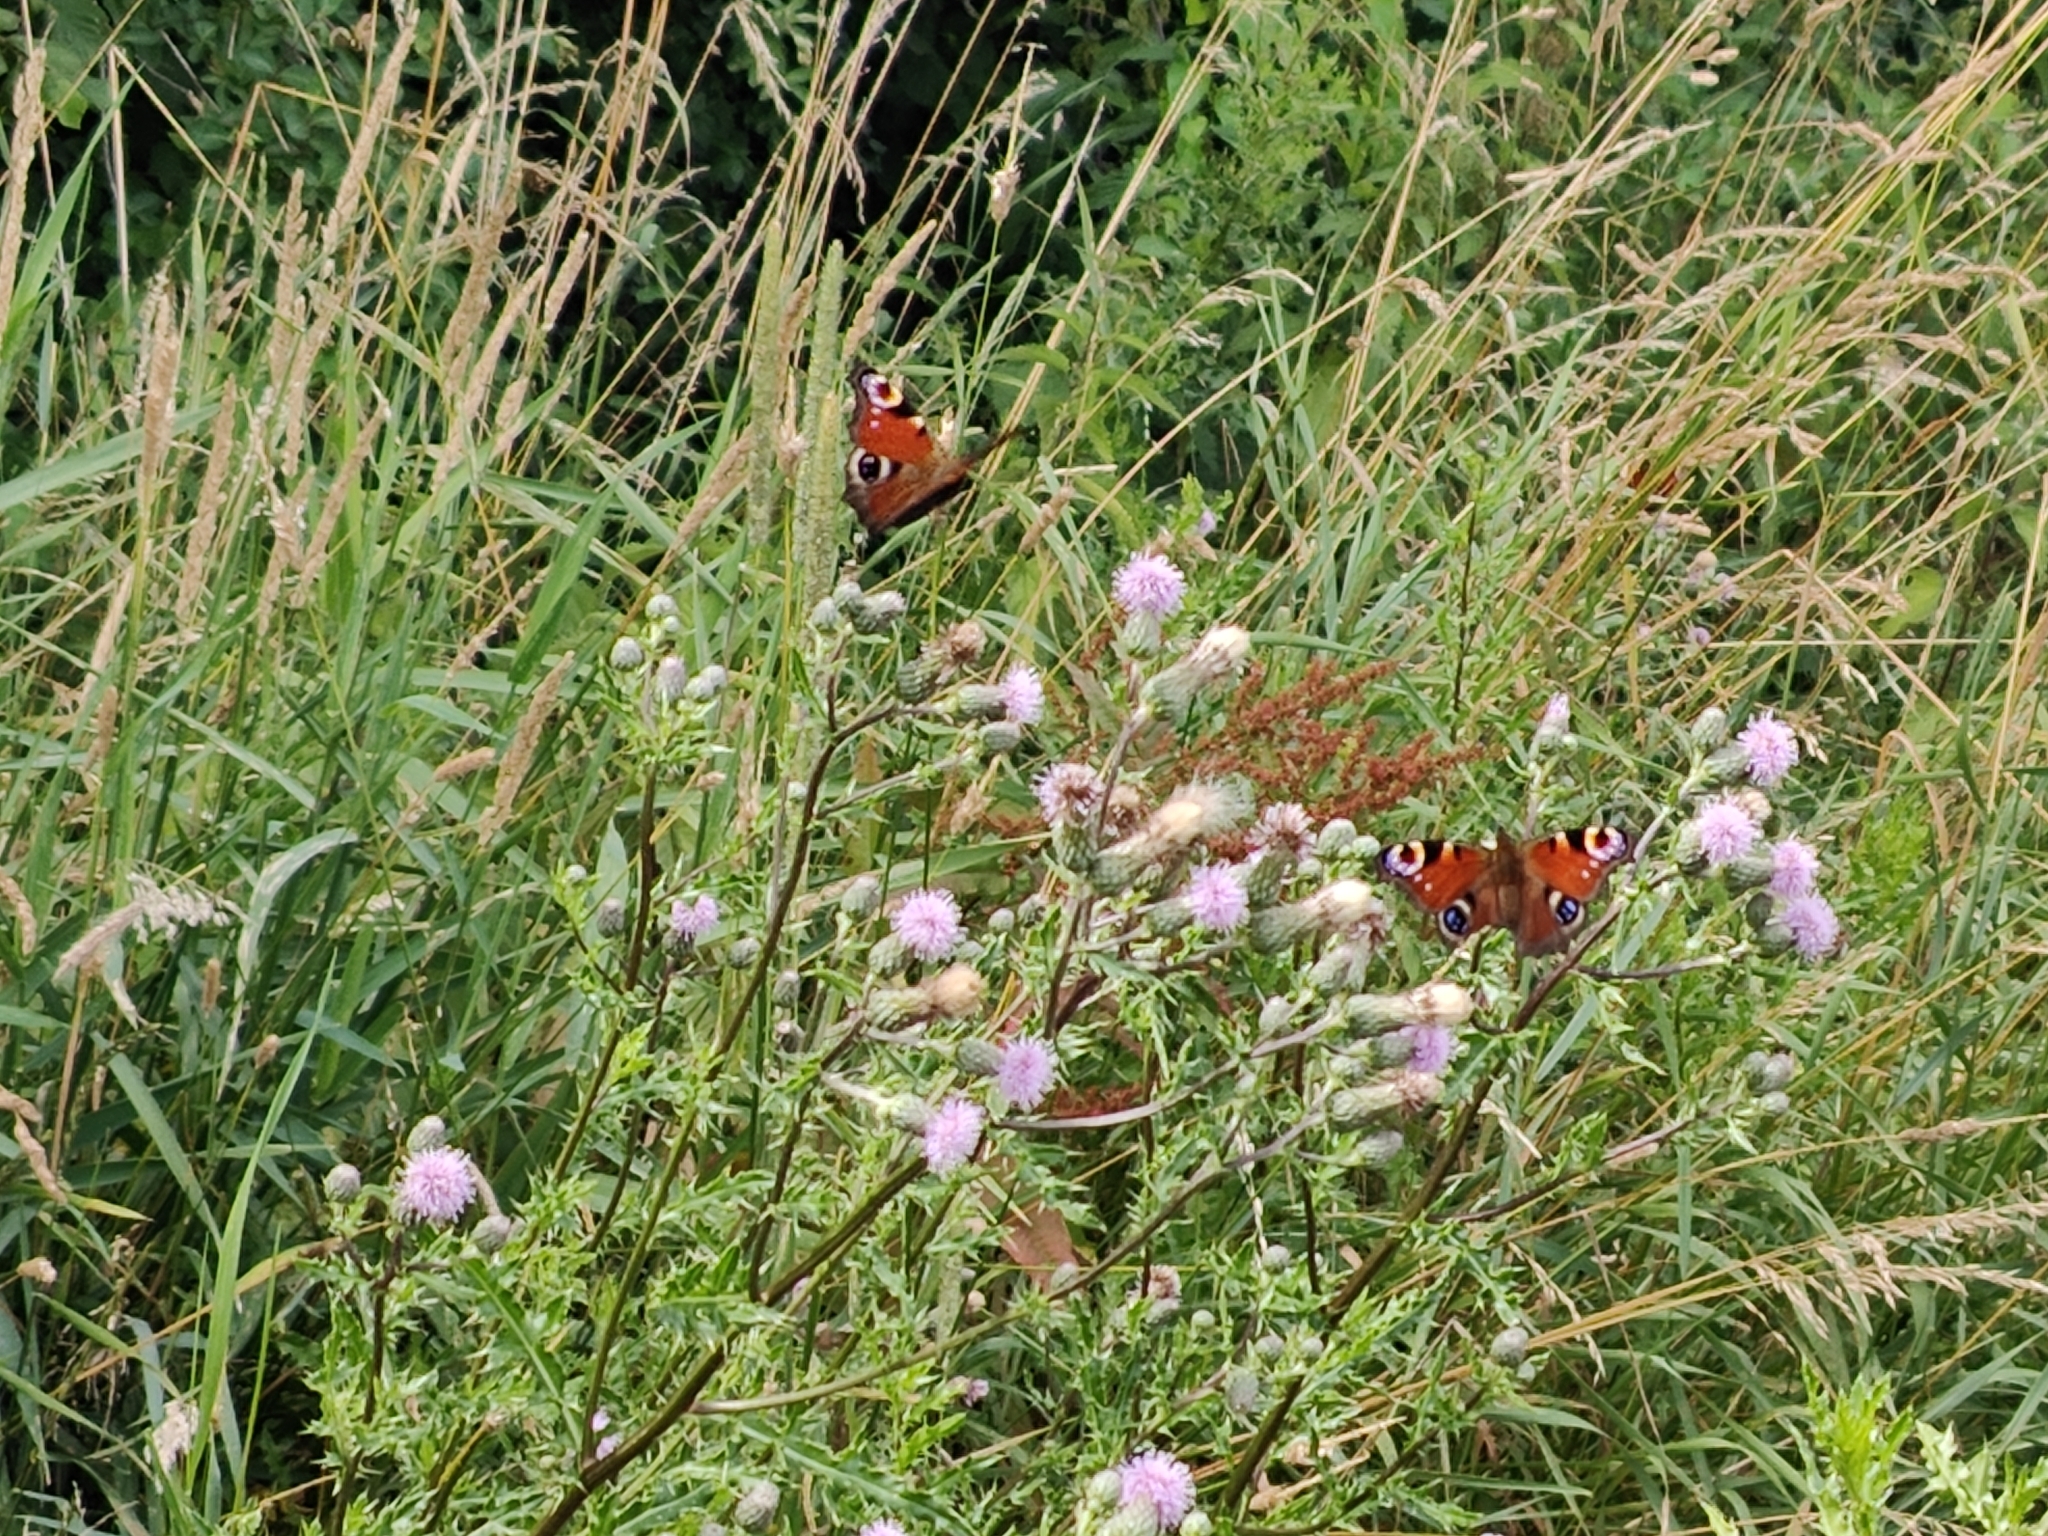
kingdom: Animalia
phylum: Arthropoda
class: Insecta
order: Lepidoptera
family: Nymphalidae
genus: Aglais
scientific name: Aglais io
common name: Peacock
